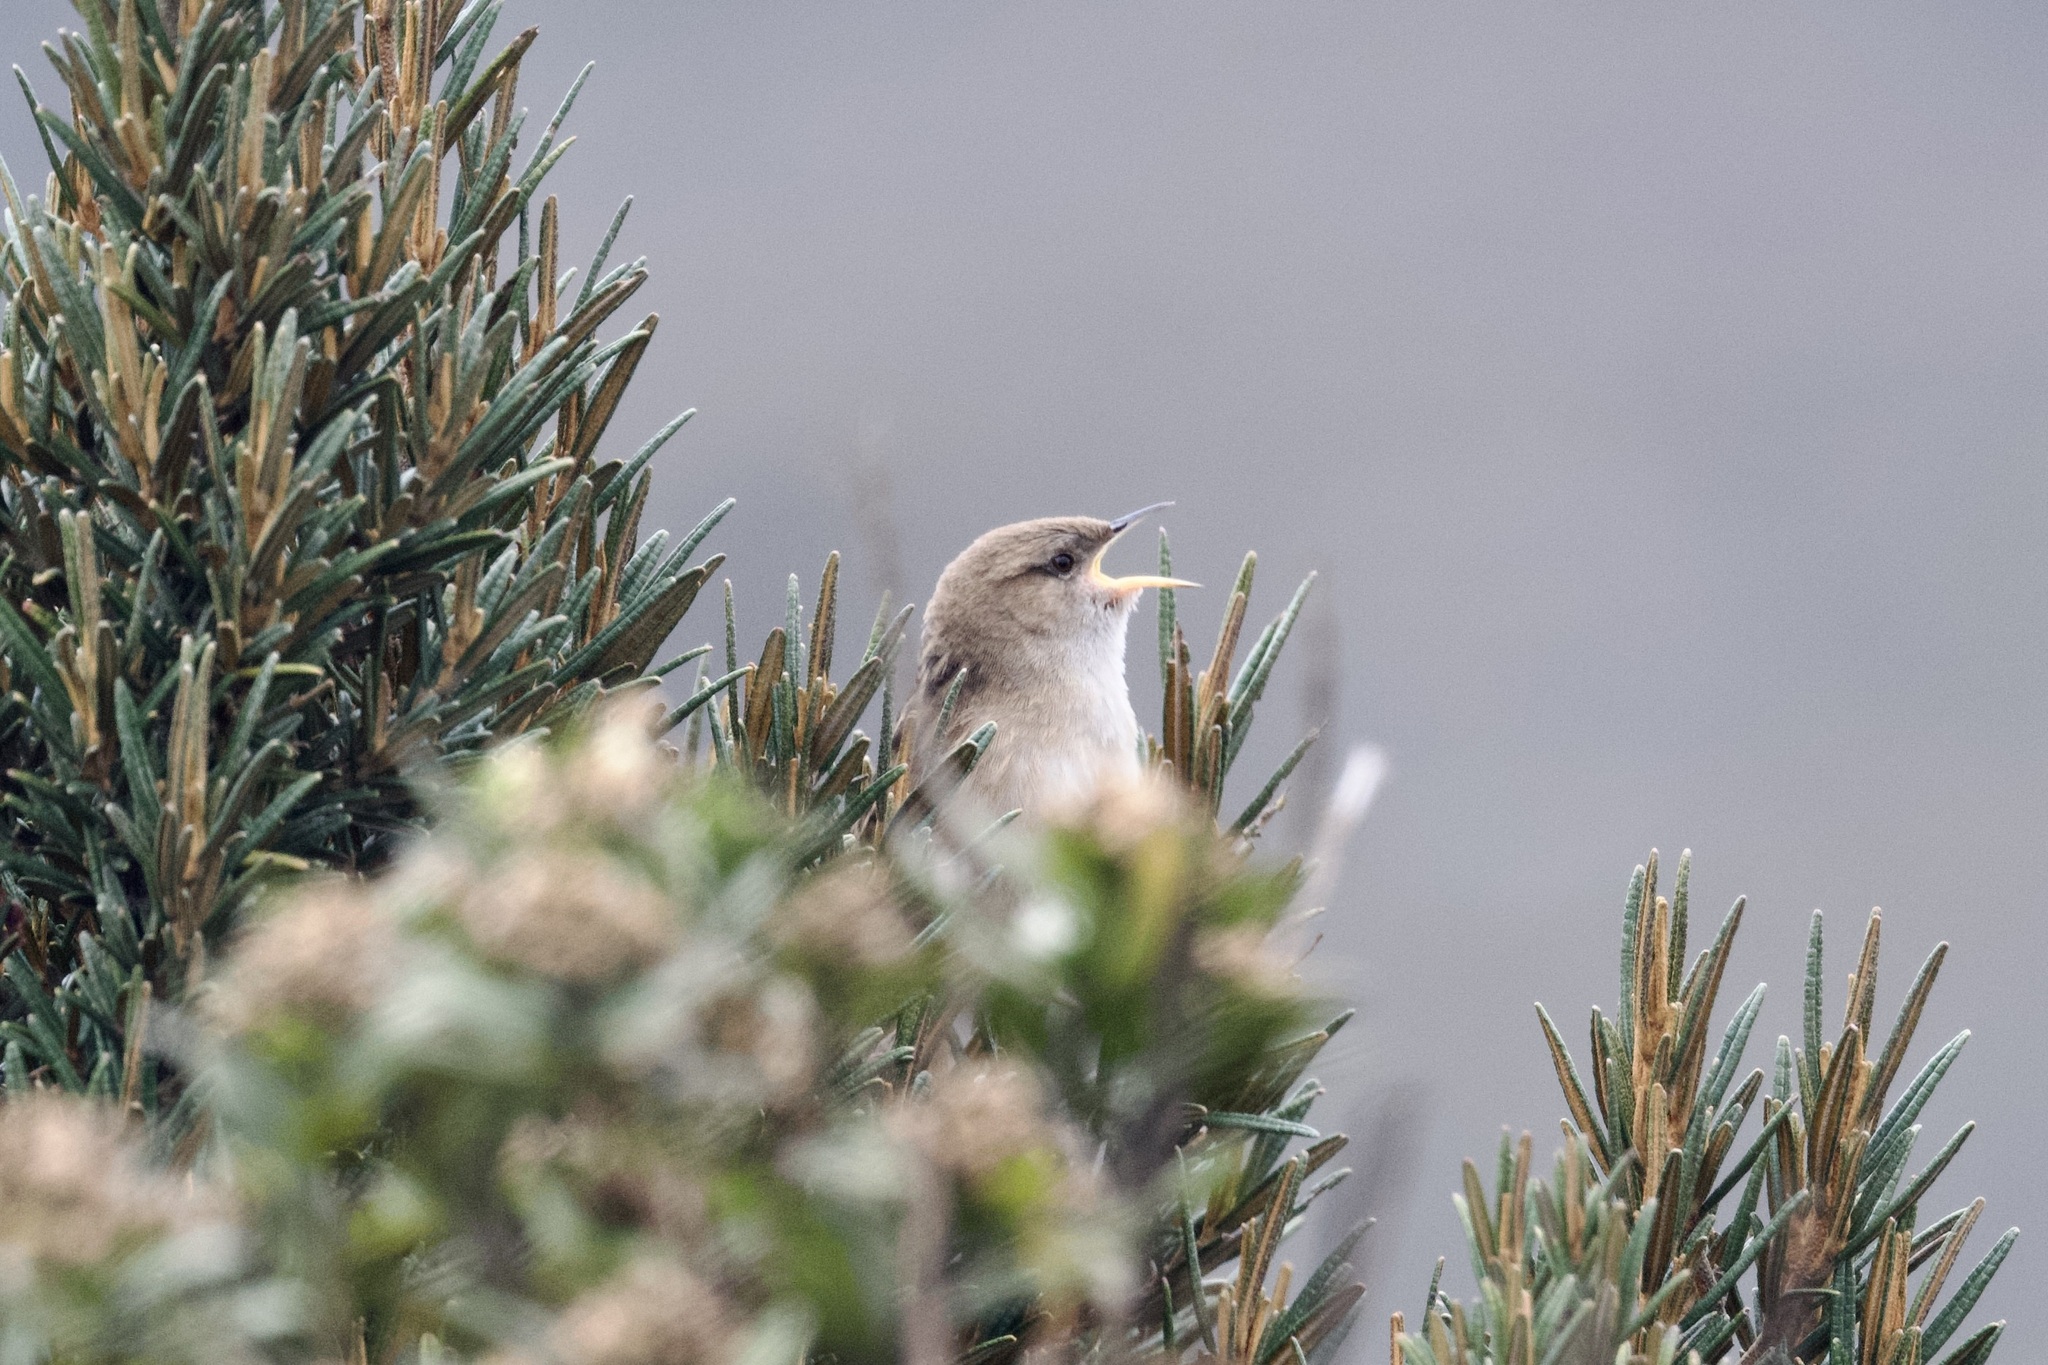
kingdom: Animalia
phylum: Chordata
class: Aves
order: Passeriformes
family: Troglodytidae
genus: Cistothorus
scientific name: Cistothorus apolinari
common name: Apolinar's wren
